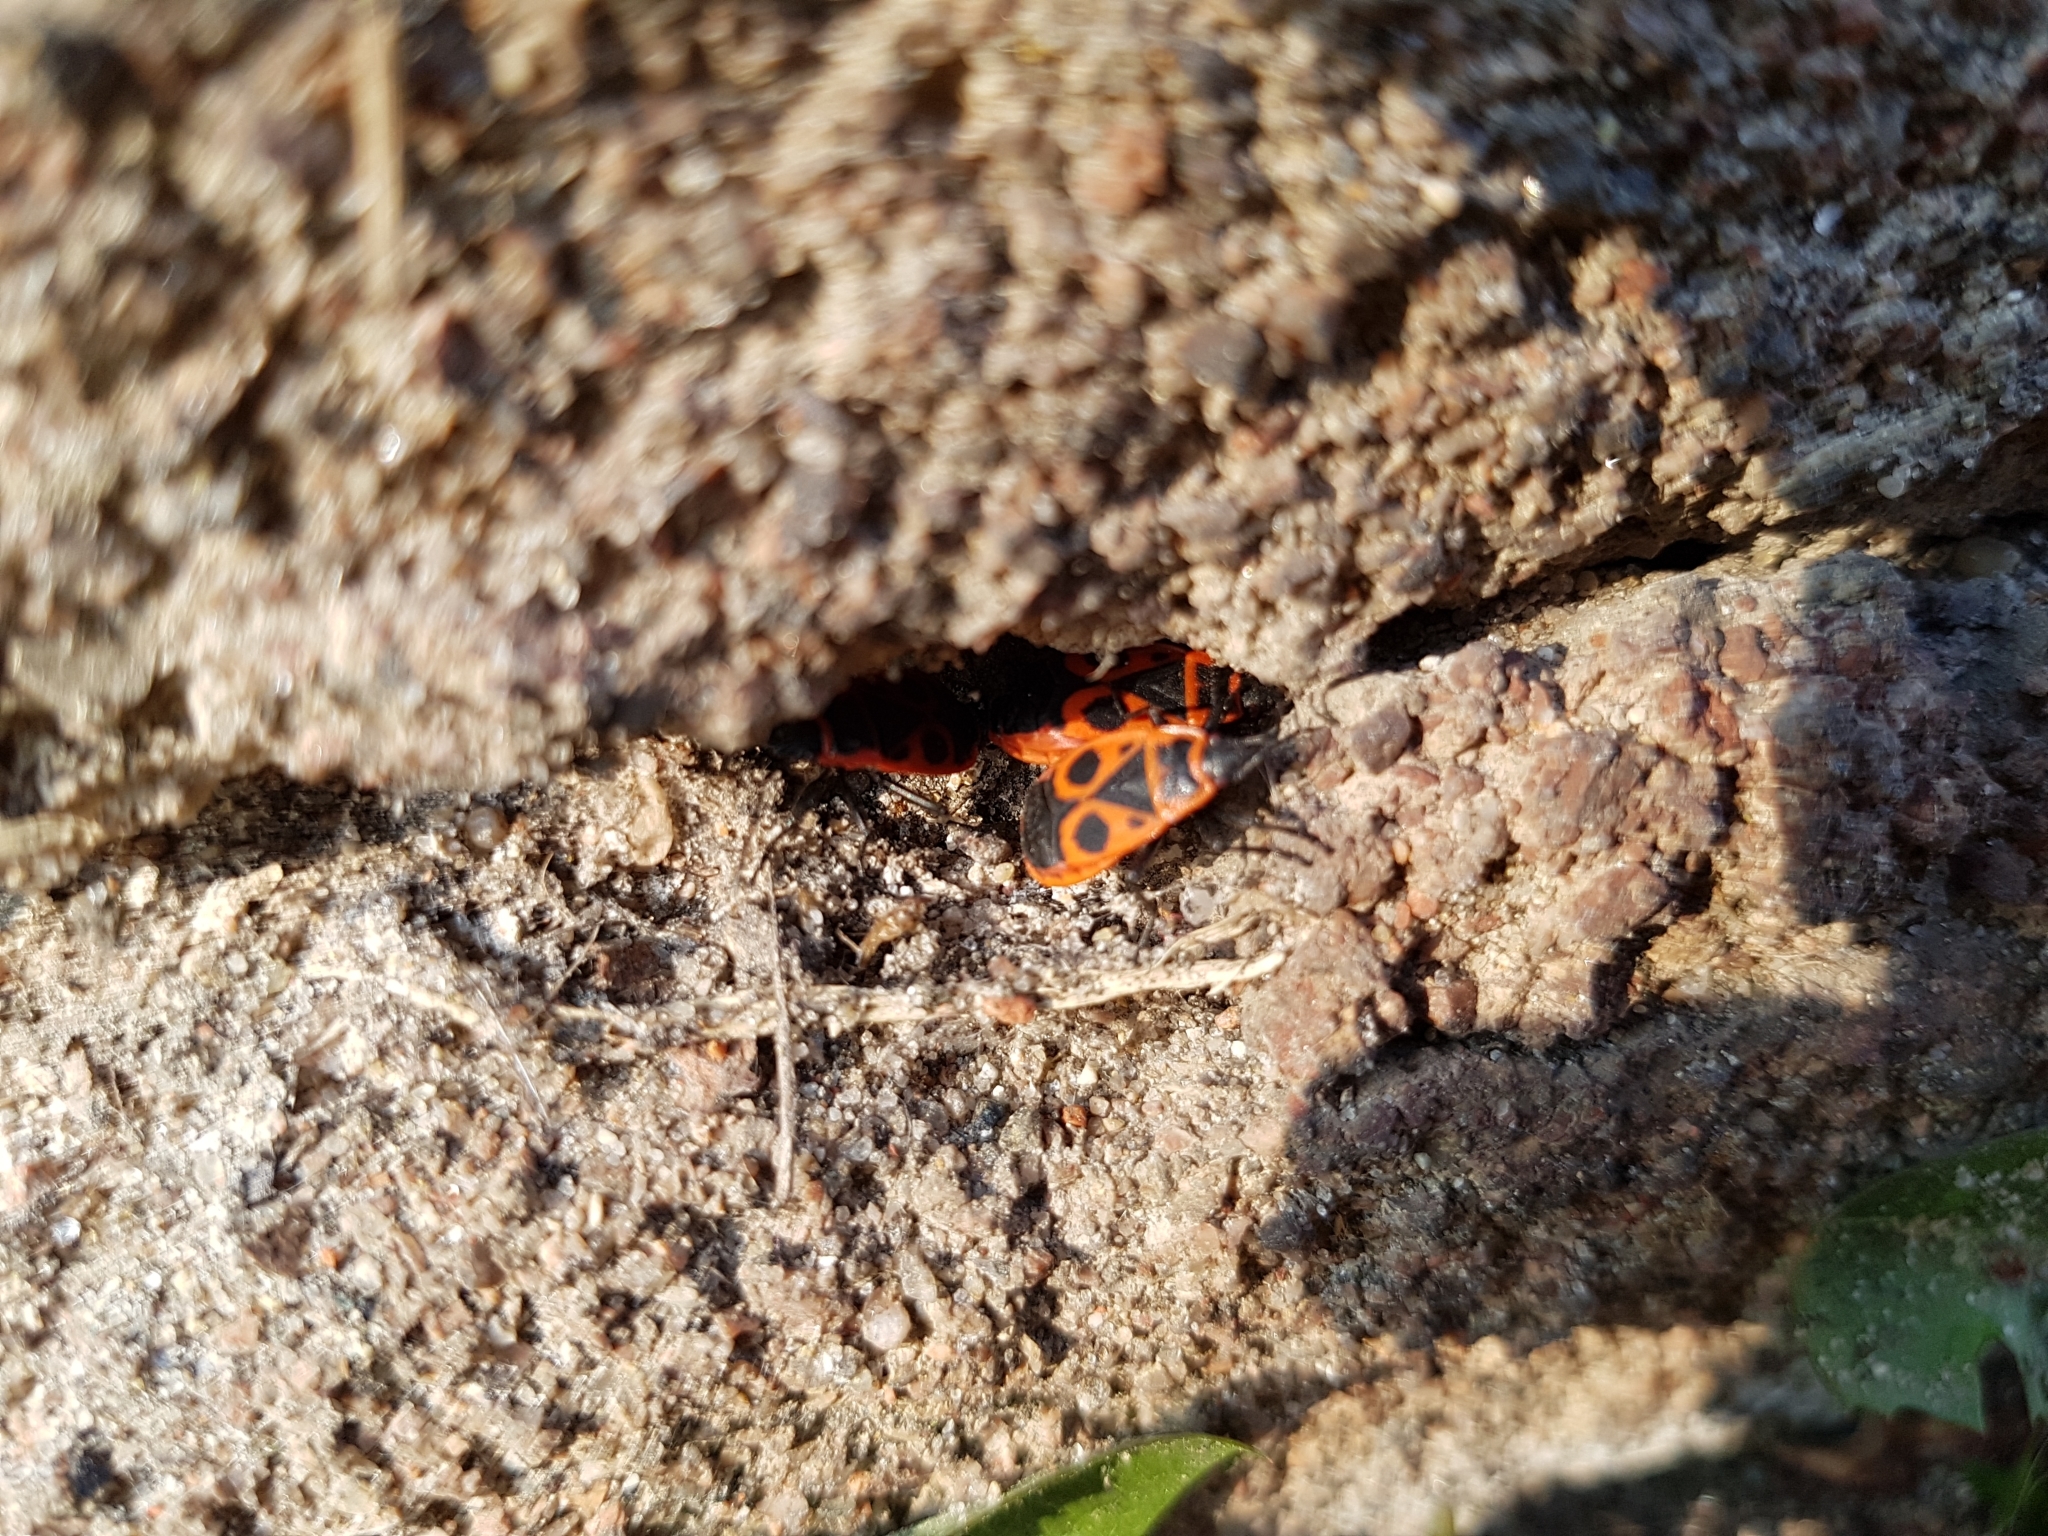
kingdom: Animalia
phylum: Arthropoda
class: Insecta
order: Hemiptera
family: Pyrrhocoridae
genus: Pyrrhocoris
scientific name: Pyrrhocoris apterus
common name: Firebug
